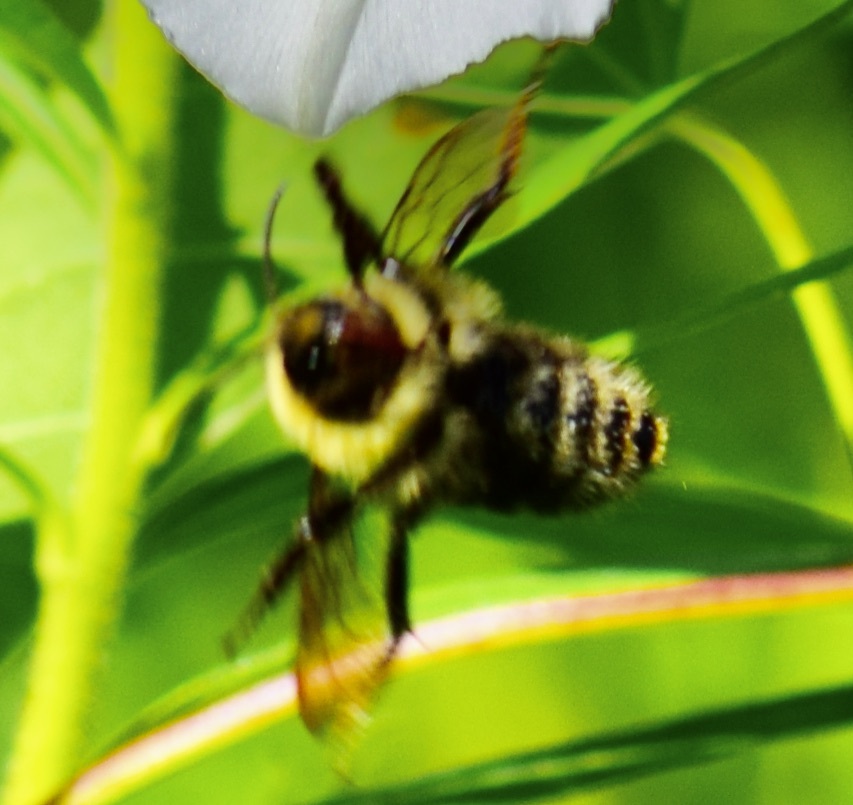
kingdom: Animalia
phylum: Arthropoda
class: Insecta
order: Hymenoptera
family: Apidae
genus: Bombus
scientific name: Bombus
